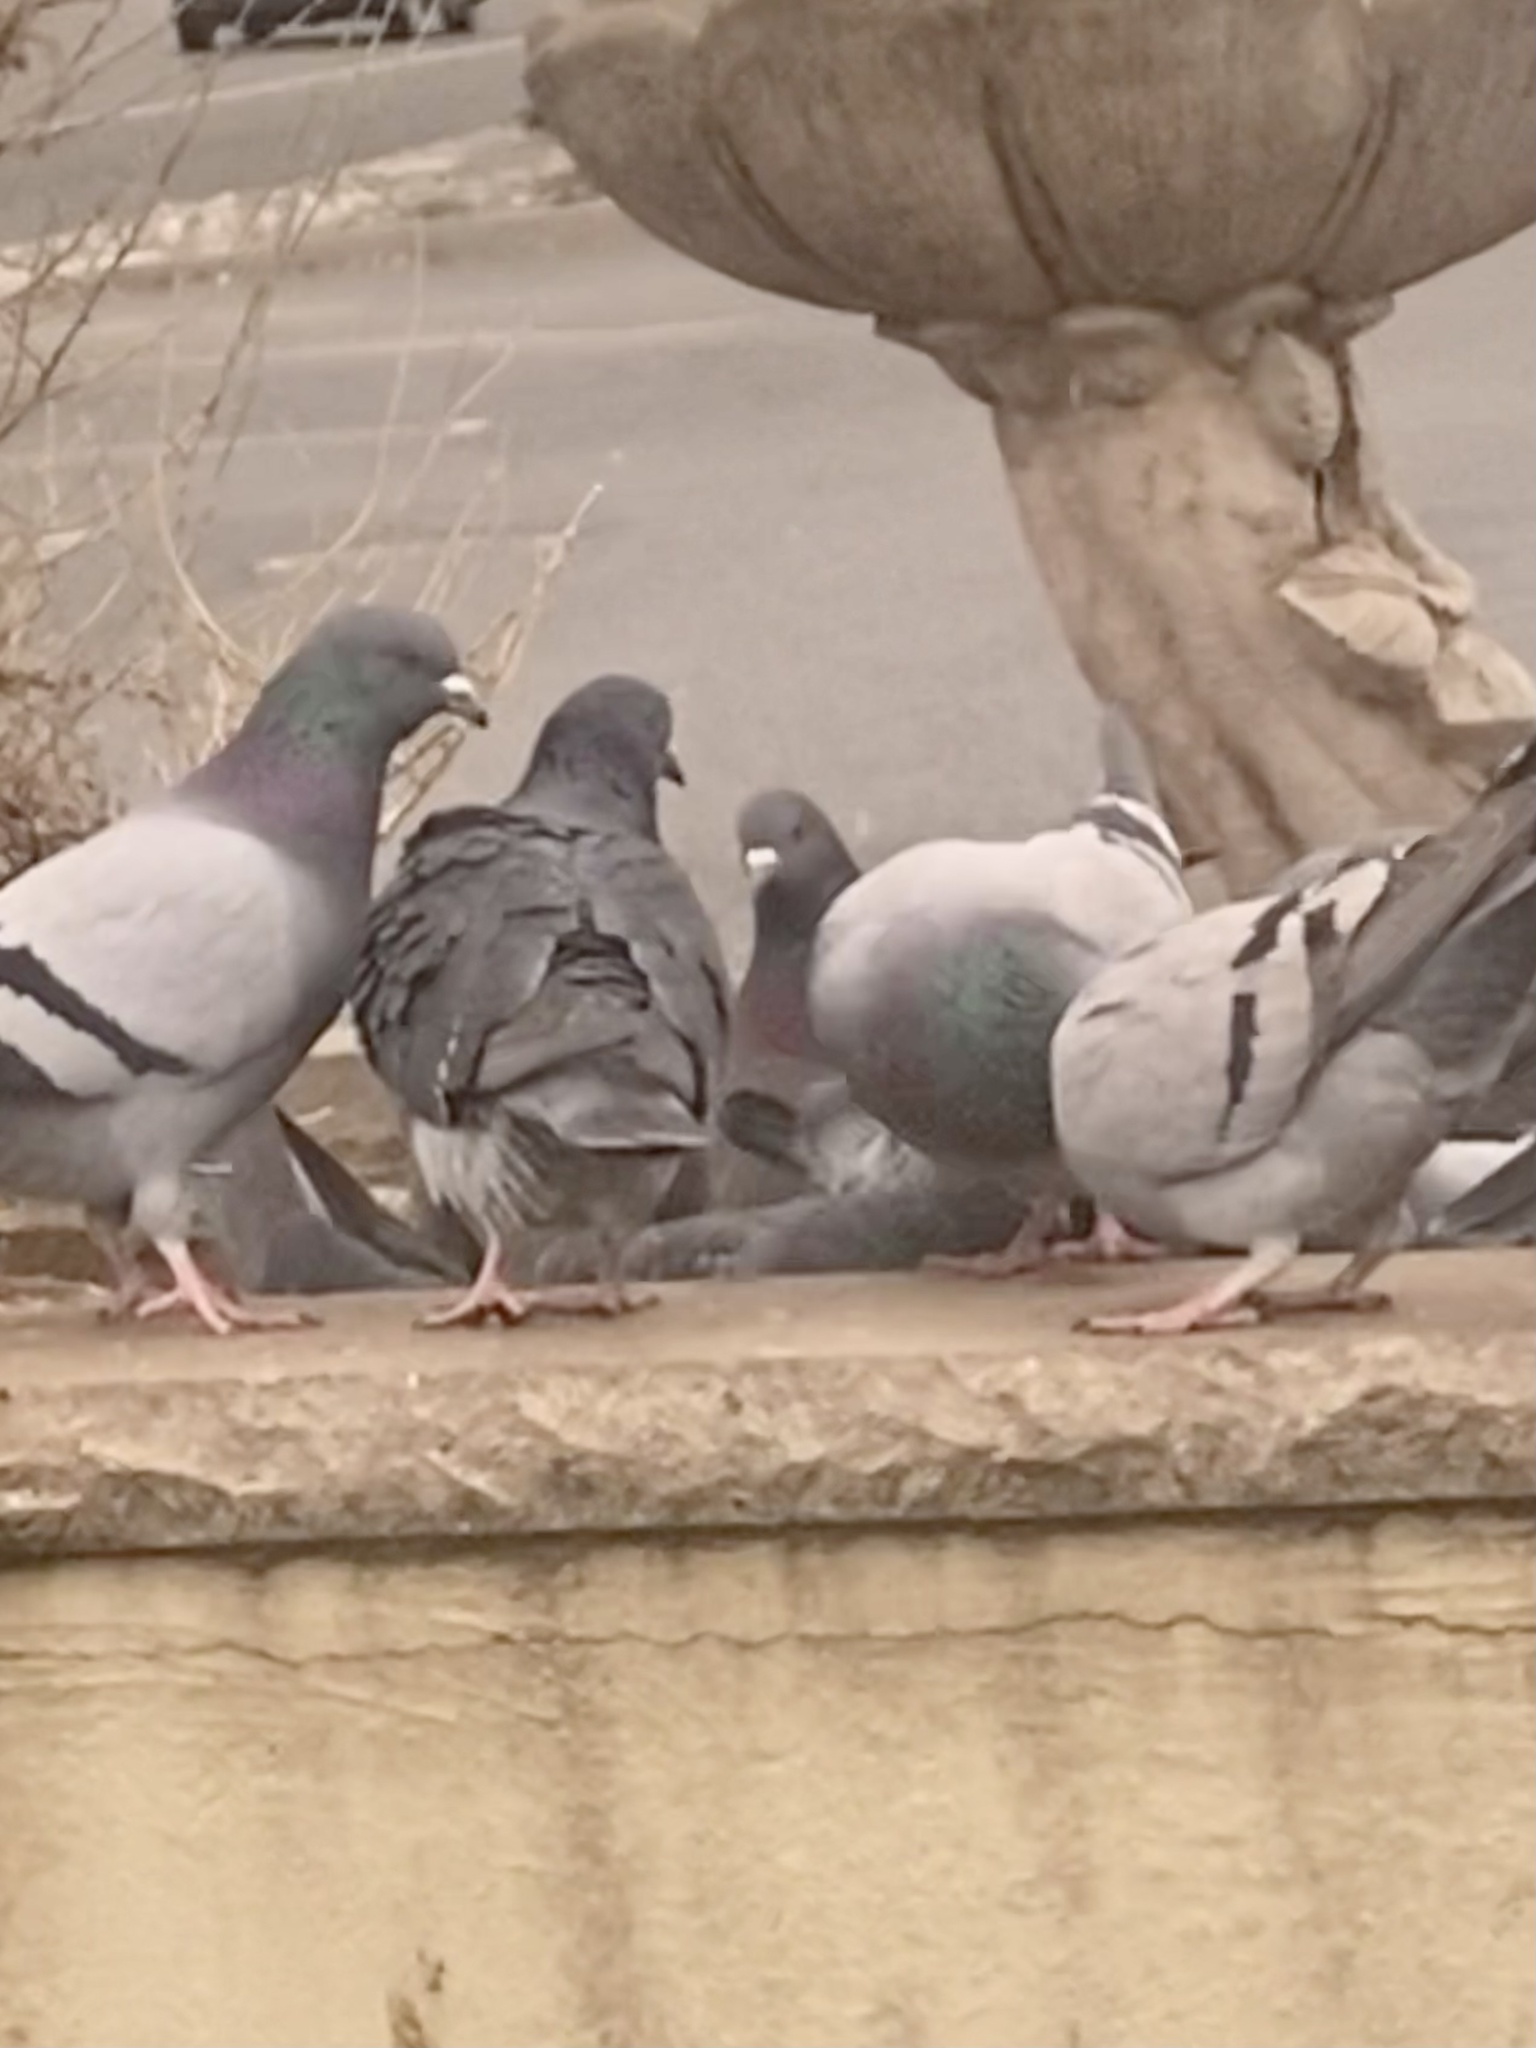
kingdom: Animalia
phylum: Chordata
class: Aves
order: Columbiformes
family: Columbidae
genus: Columba
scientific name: Columba livia
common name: Rock pigeon
